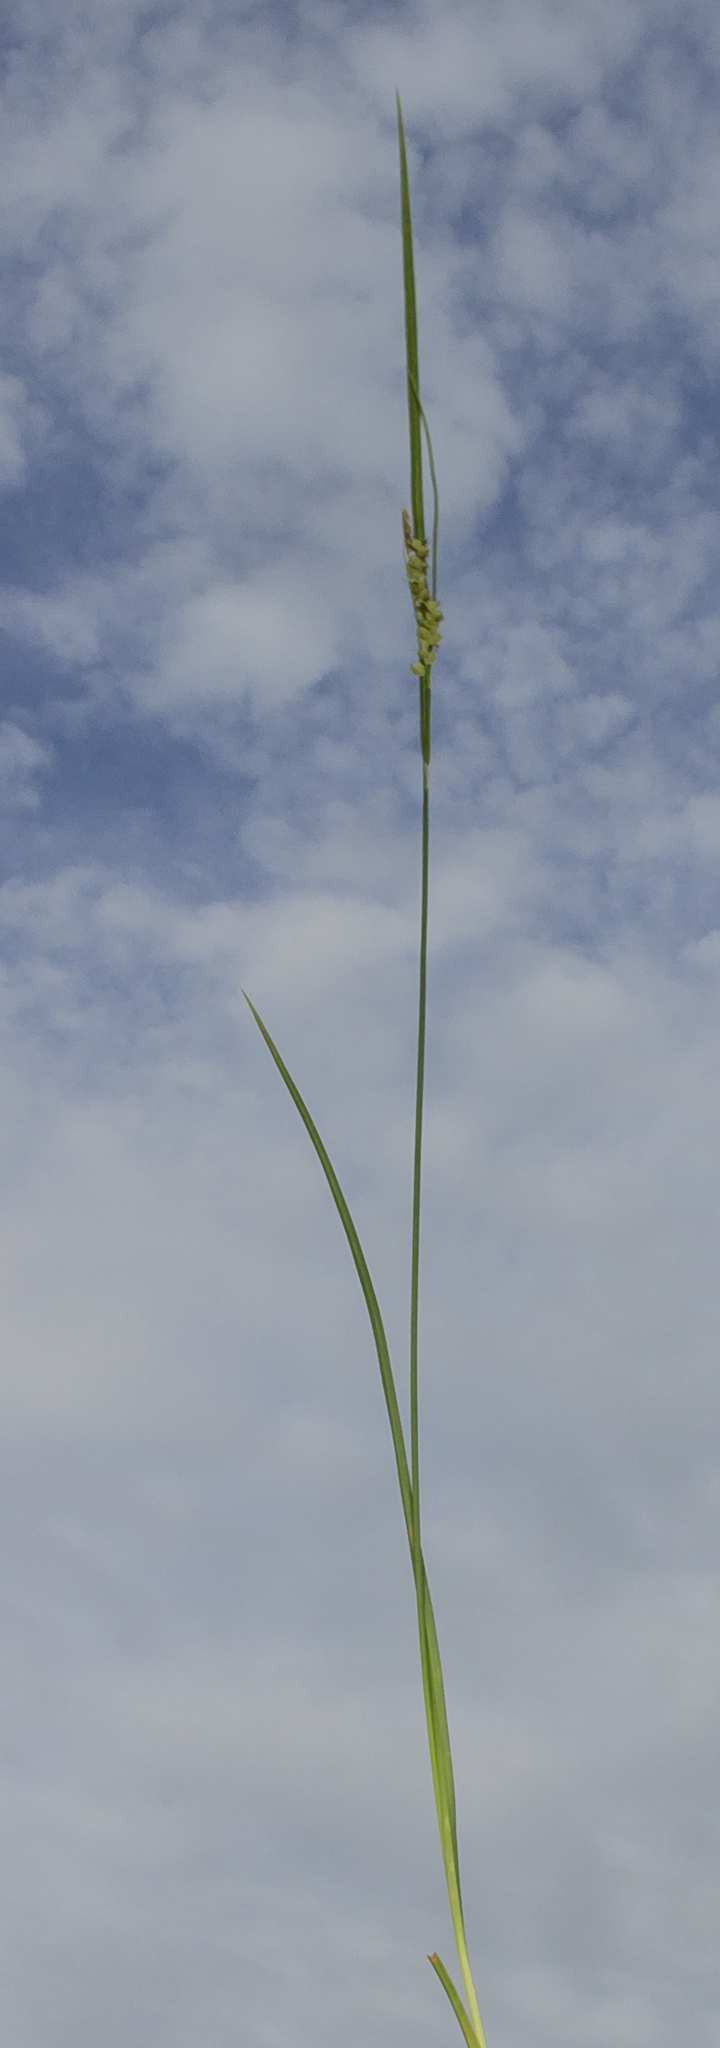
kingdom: Plantae
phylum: Tracheophyta
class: Liliopsida
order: Poales
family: Cyperaceae
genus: Carex
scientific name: Carex aurea
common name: Golden sedge
